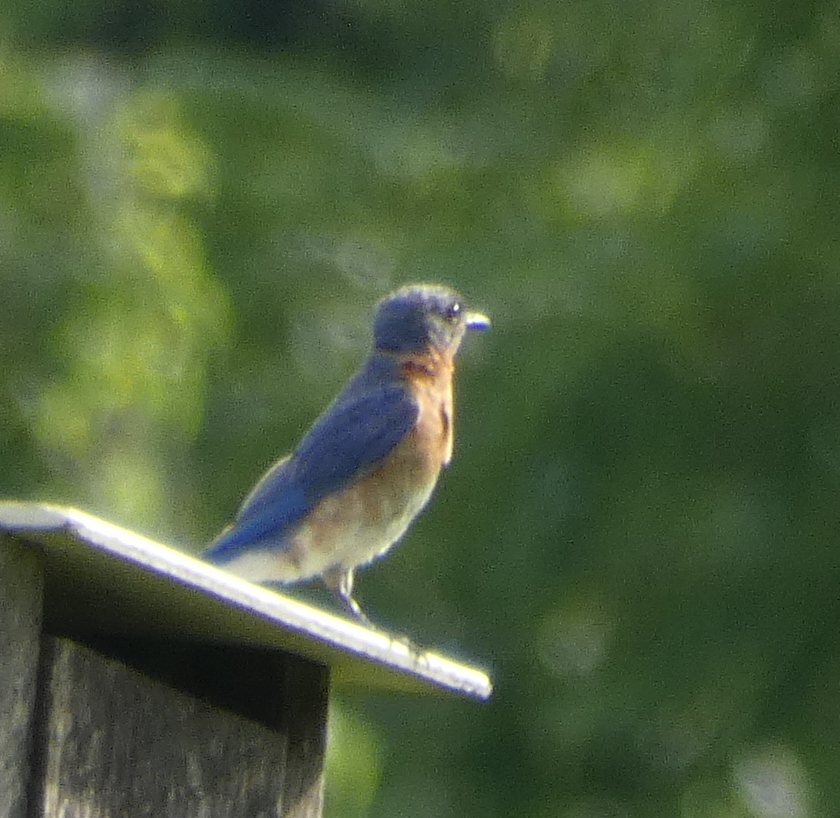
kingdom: Animalia
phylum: Chordata
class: Aves
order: Passeriformes
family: Turdidae
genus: Sialia
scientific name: Sialia sialis
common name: Eastern bluebird
